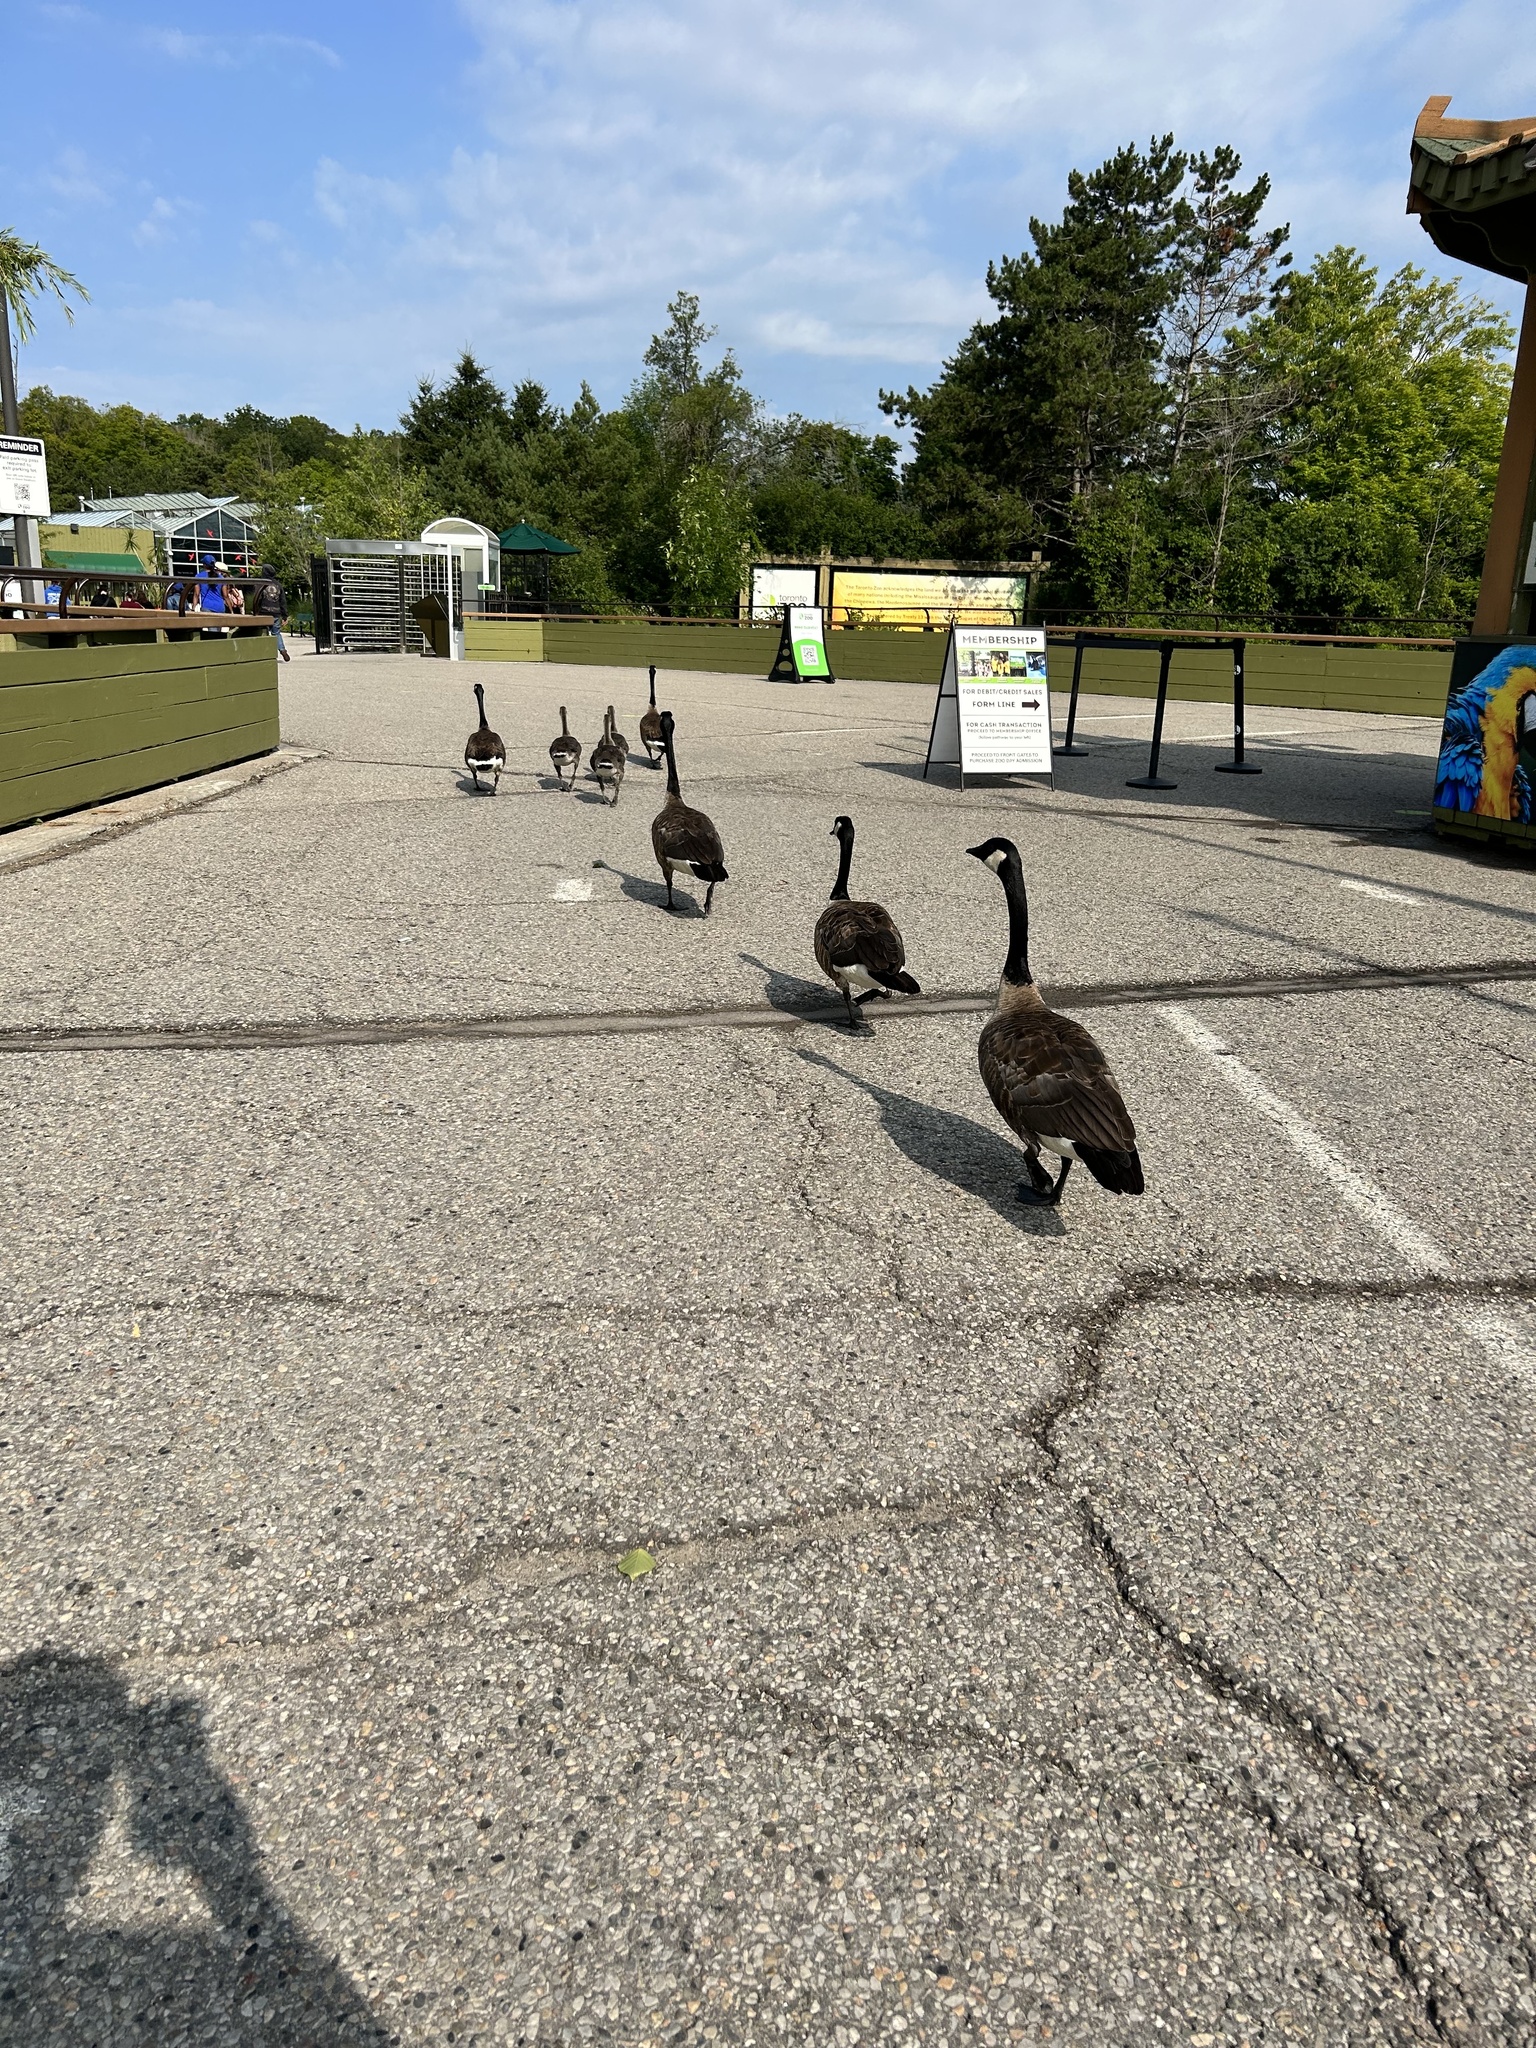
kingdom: Animalia
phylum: Chordata
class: Aves
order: Anseriformes
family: Anatidae
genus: Branta
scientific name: Branta canadensis
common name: Canada goose
